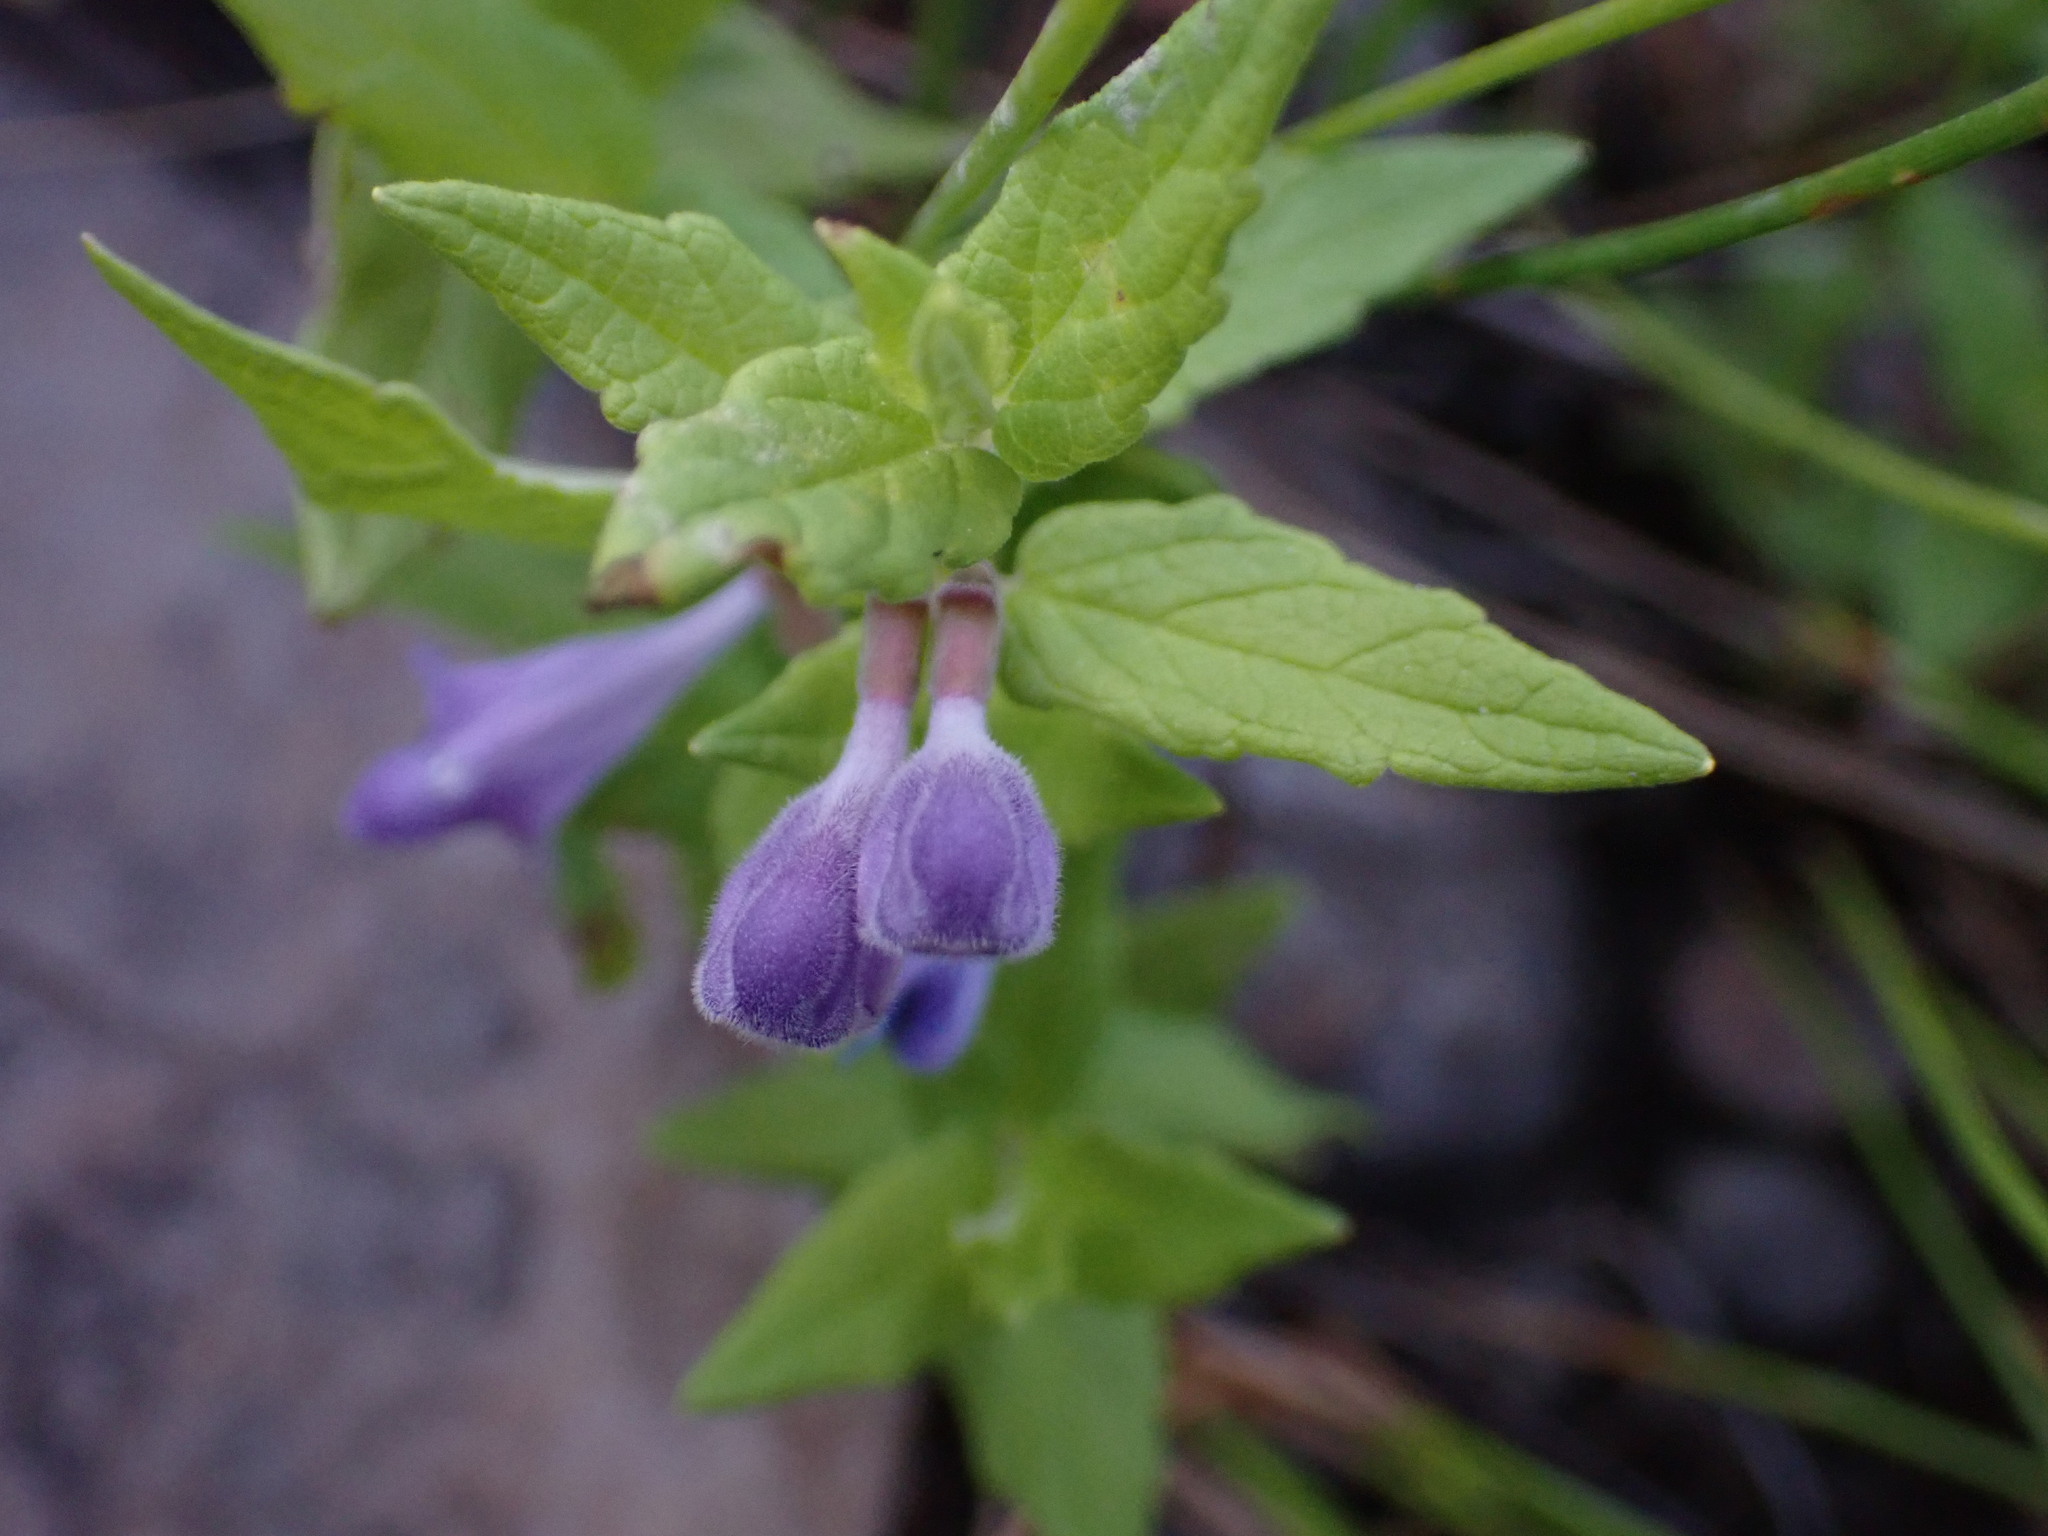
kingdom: Plantae
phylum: Tracheophyta
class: Magnoliopsida
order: Lamiales
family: Lamiaceae
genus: Scutellaria
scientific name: Scutellaria galericulata
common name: Skullcap
